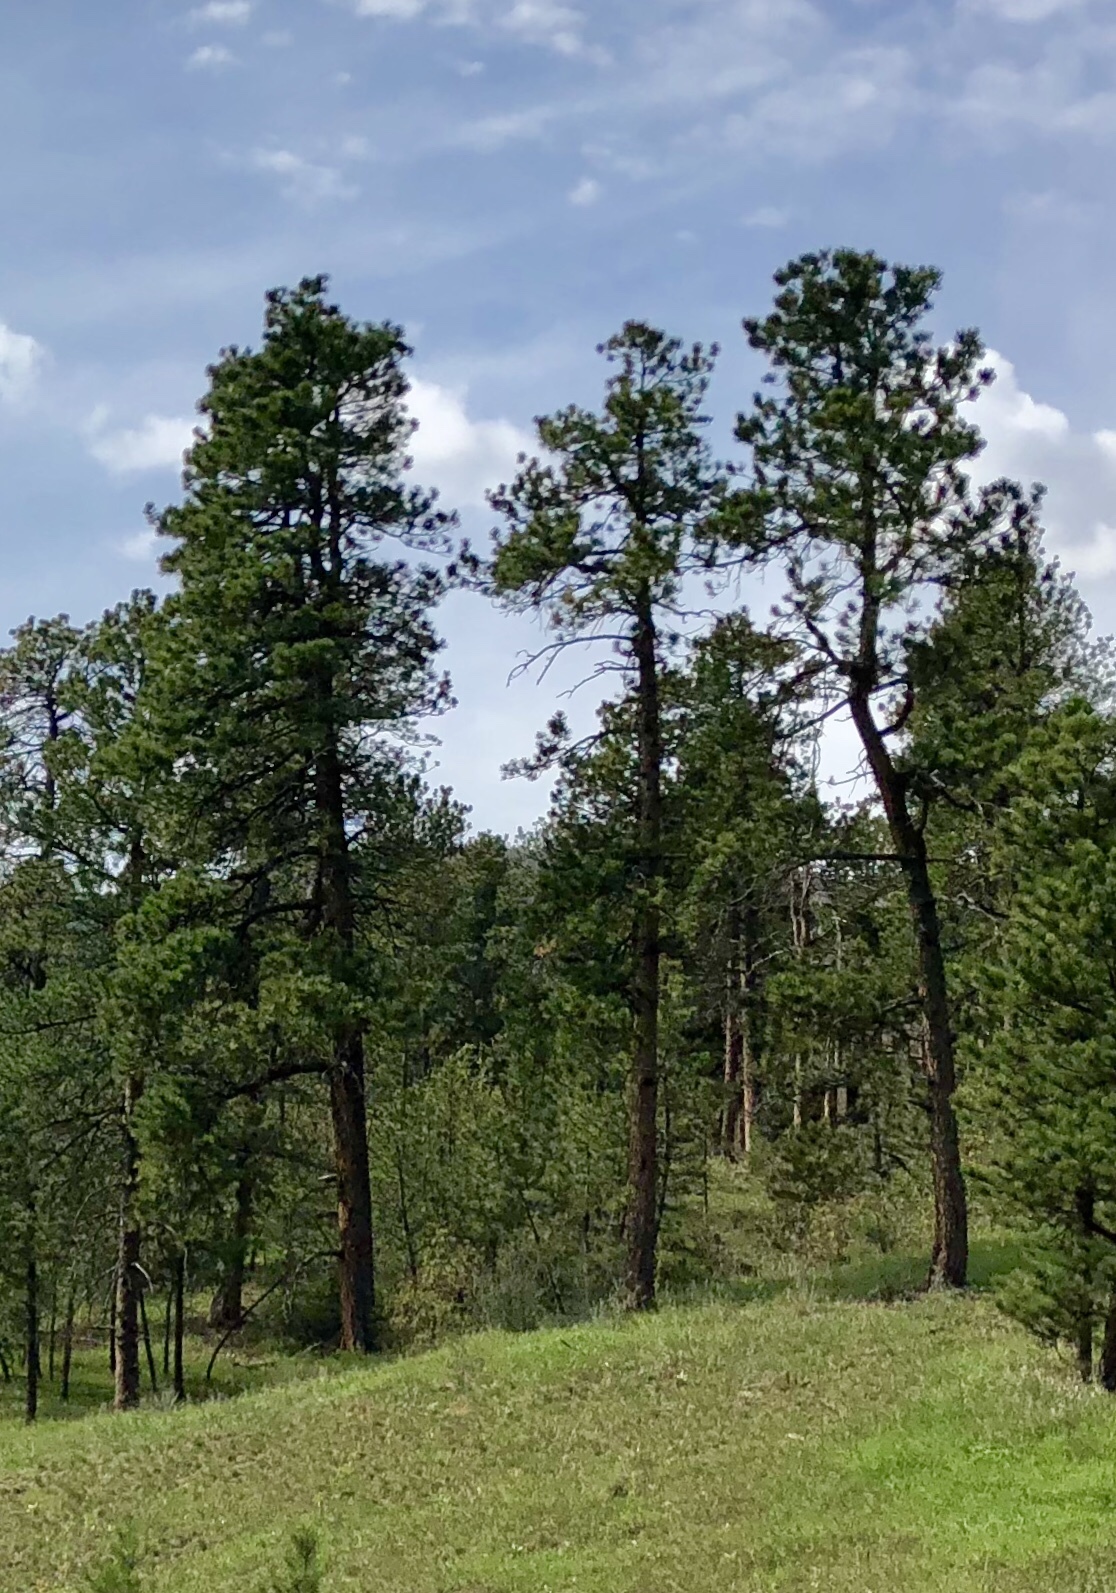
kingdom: Plantae
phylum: Tracheophyta
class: Pinopsida
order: Pinales
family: Pinaceae
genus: Pinus
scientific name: Pinus ponderosa
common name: Western yellow-pine
